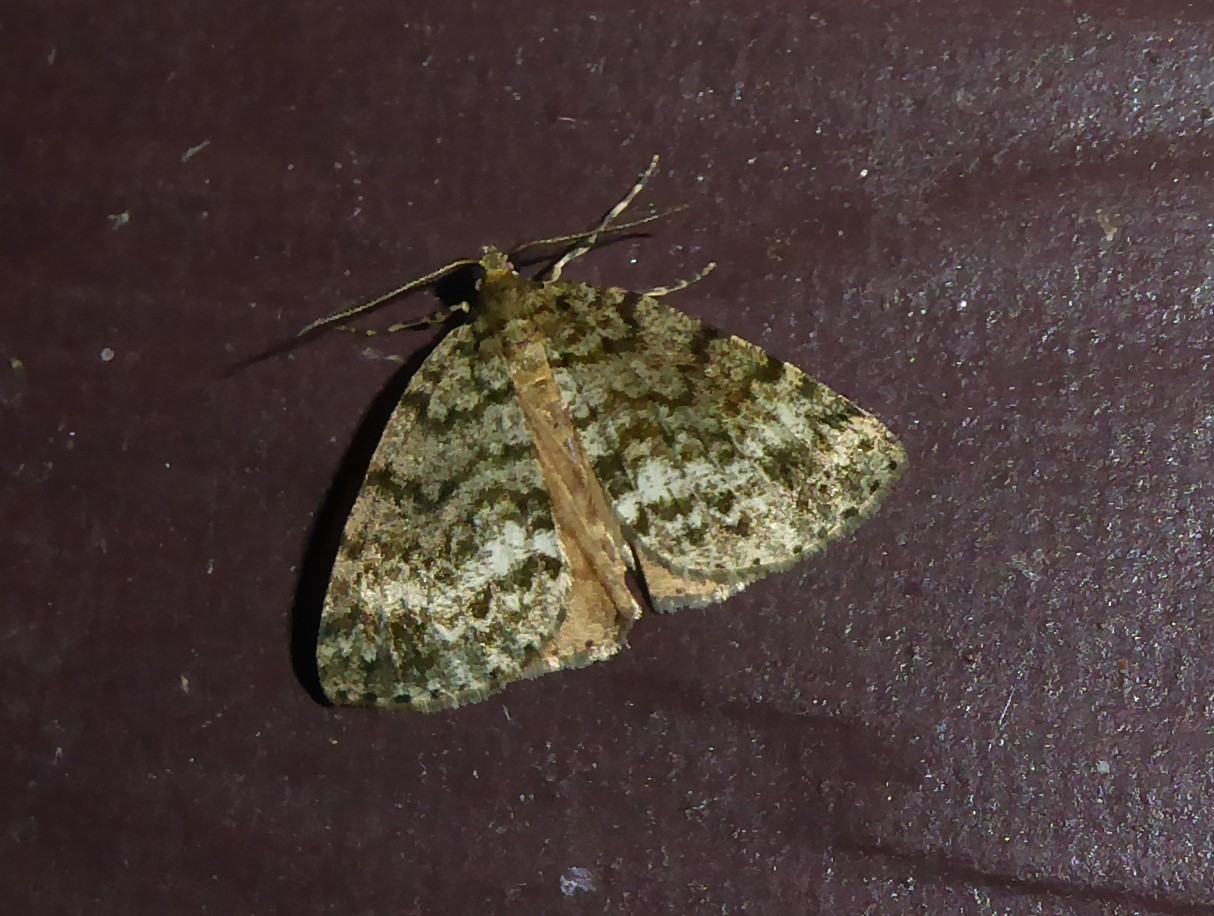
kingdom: Animalia
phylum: Arthropoda
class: Insecta
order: Lepidoptera
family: Geometridae
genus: Pseudocoremia
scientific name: Pseudocoremia indistincta
